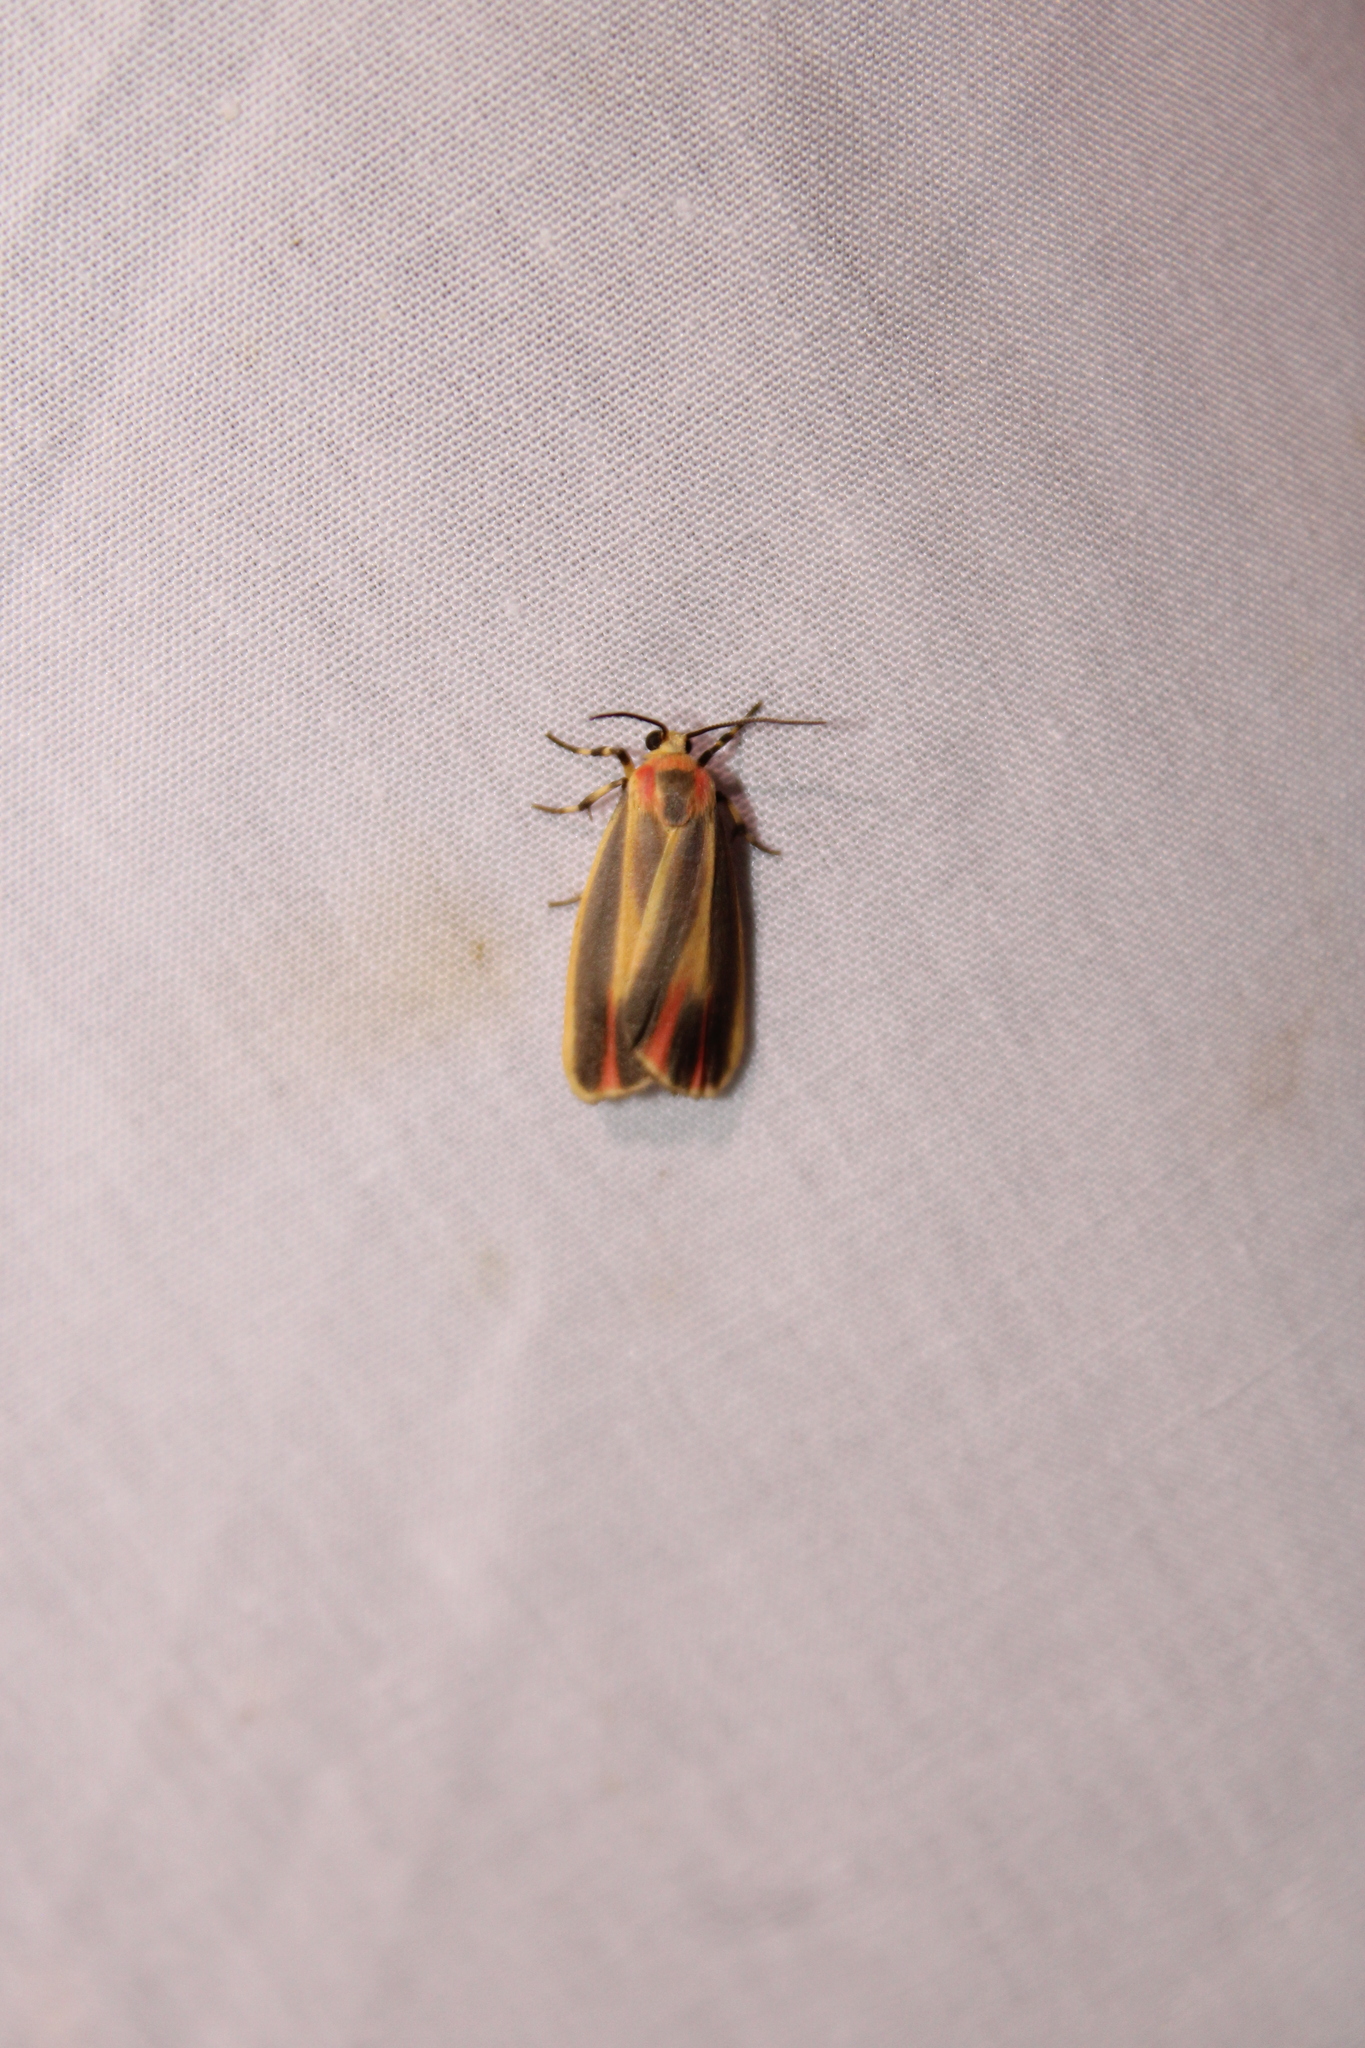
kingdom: Animalia
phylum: Arthropoda
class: Insecta
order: Lepidoptera
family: Erebidae
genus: Hypoprepia
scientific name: Hypoprepia fucosa
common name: Painted lichen moth
